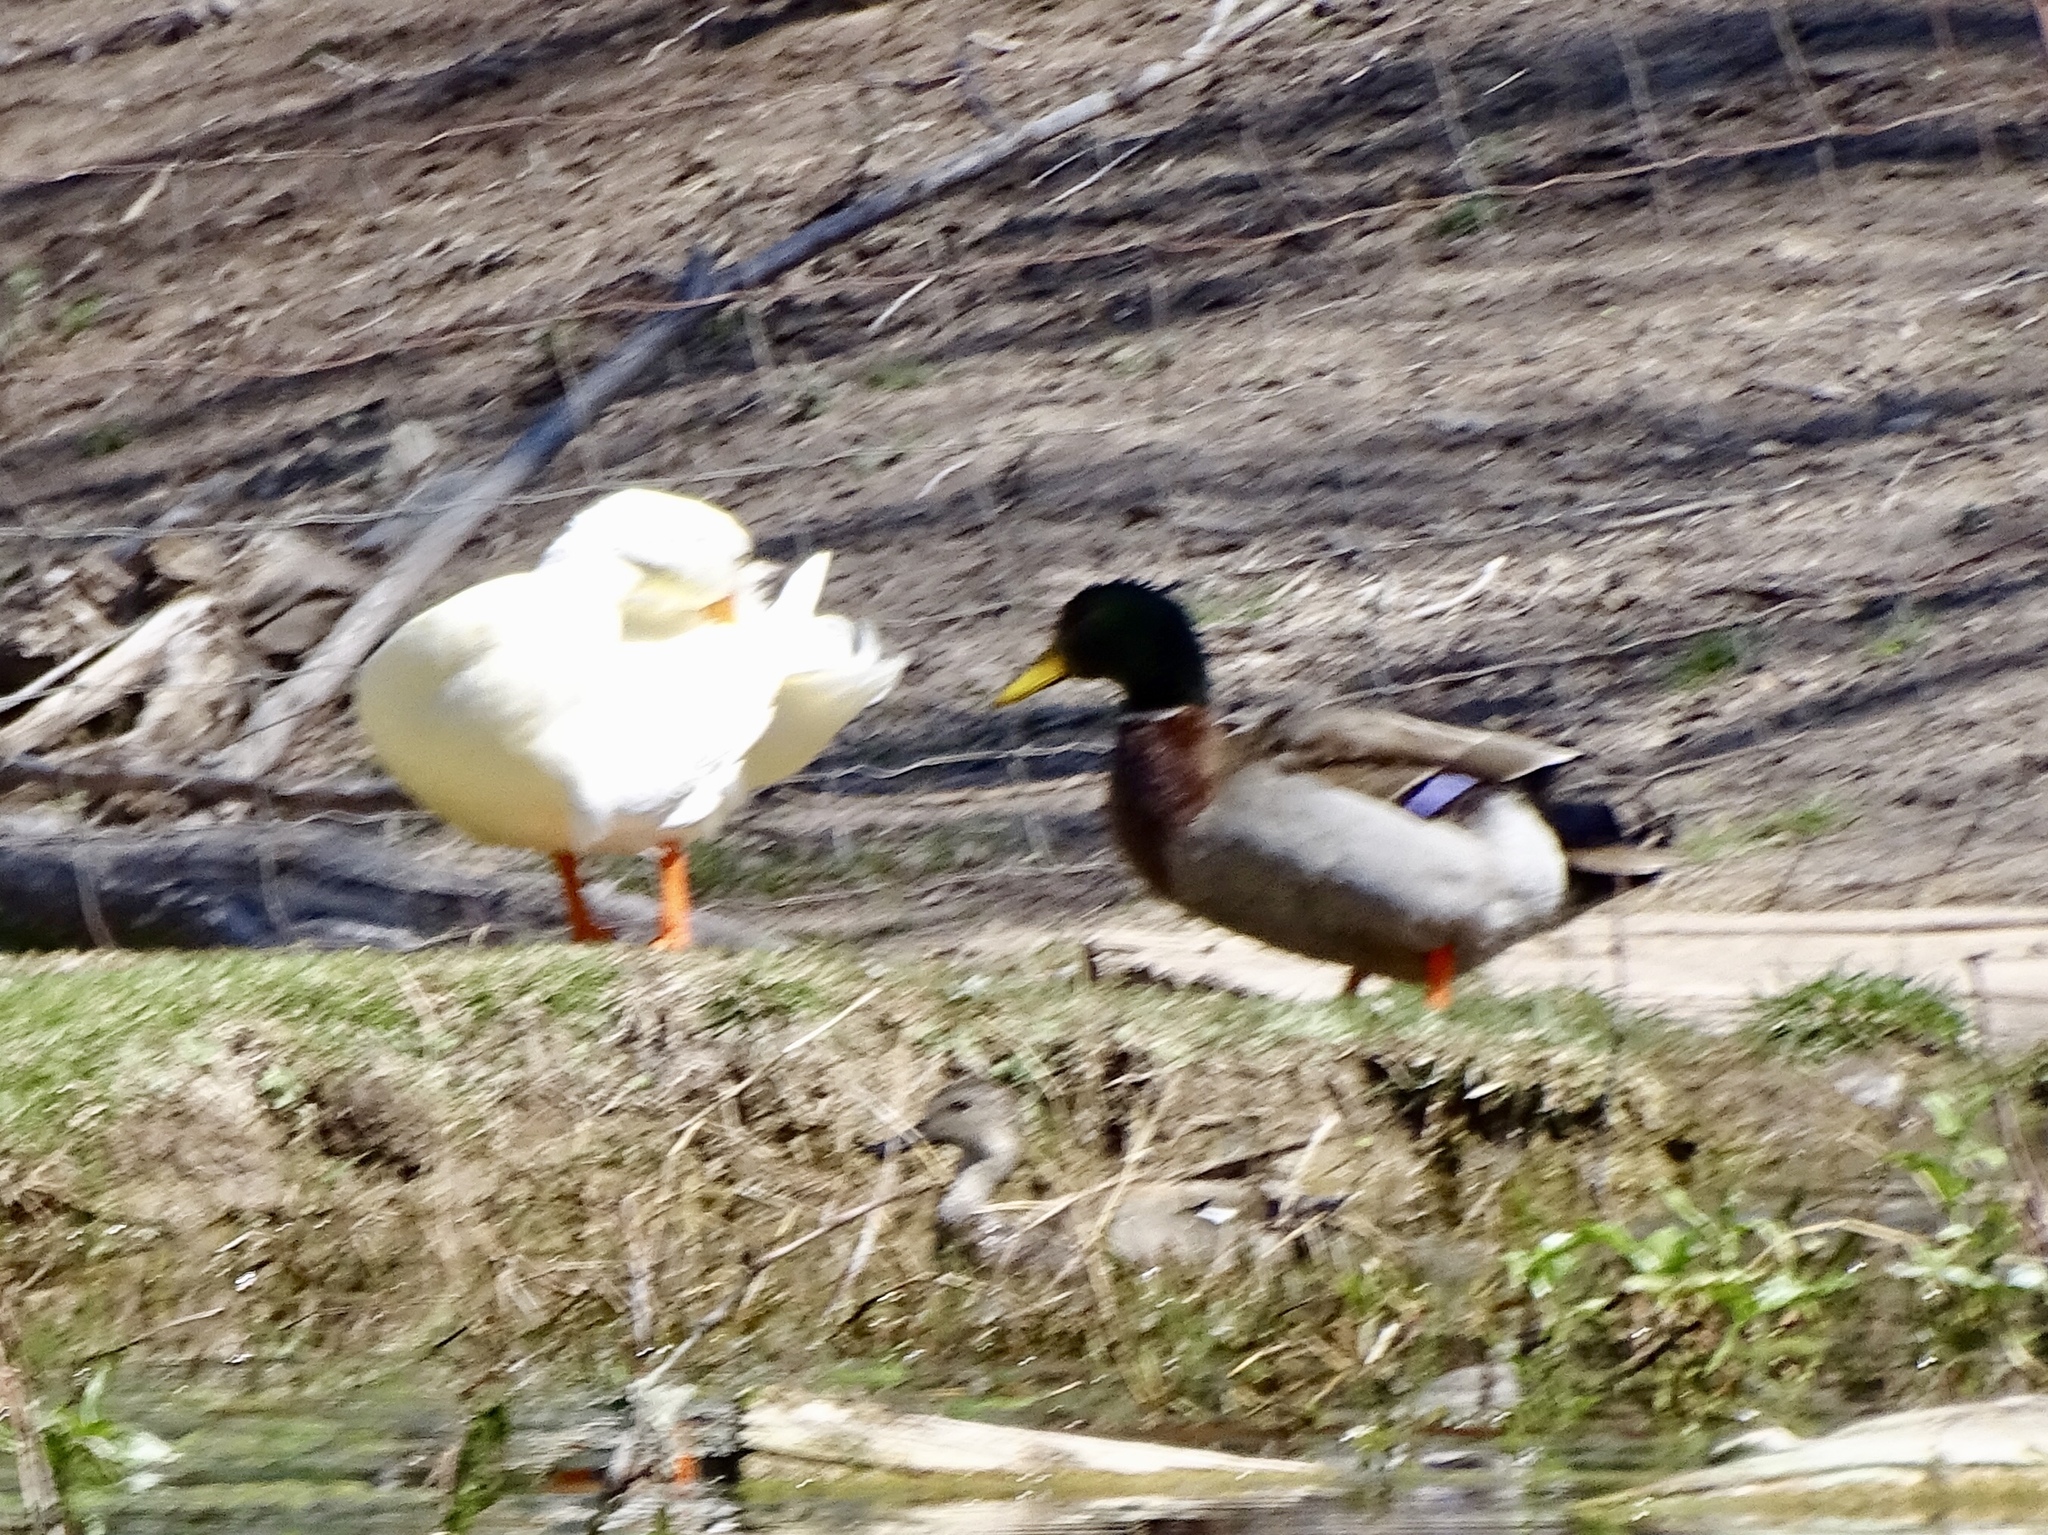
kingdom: Animalia
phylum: Chordata
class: Aves
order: Anseriformes
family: Anatidae
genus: Anas
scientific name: Anas platyrhynchos
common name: Mallard
